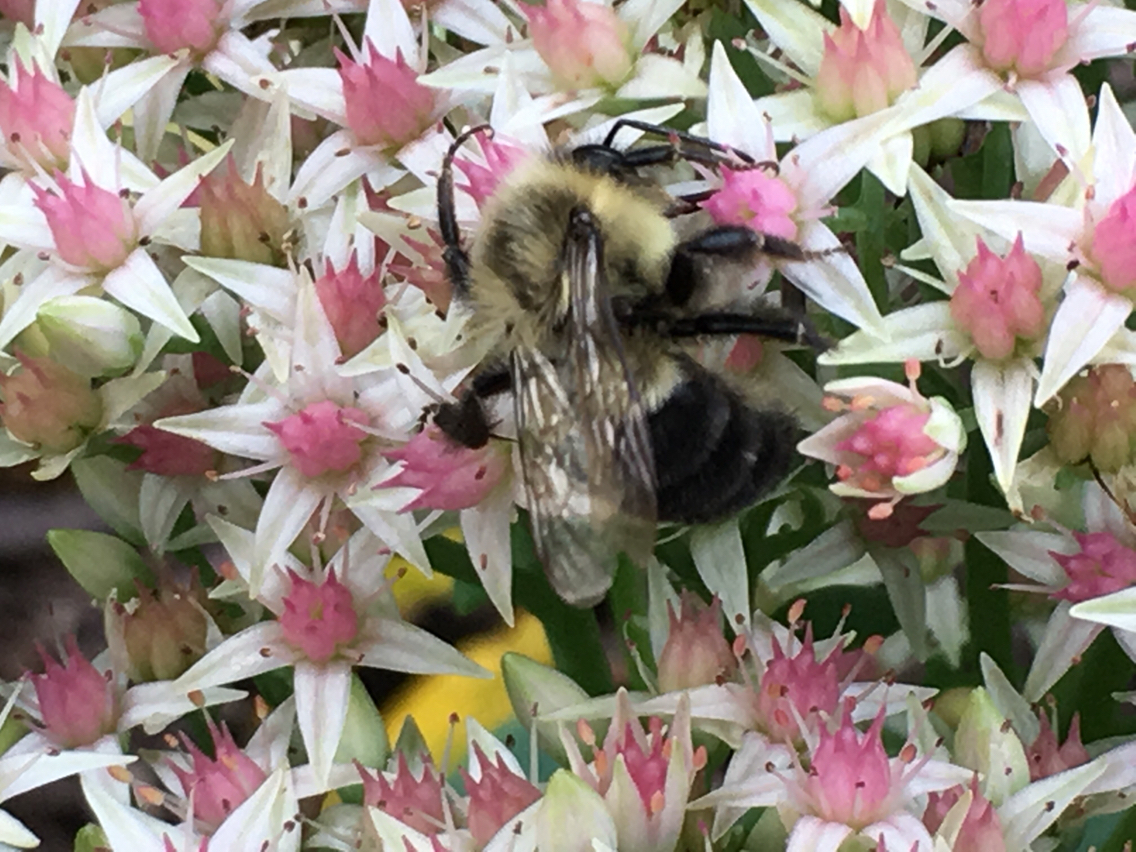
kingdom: Animalia
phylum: Arthropoda
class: Insecta
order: Hymenoptera
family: Apidae
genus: Bombus
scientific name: Bombus impatiens
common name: Common eastern bumble bee
